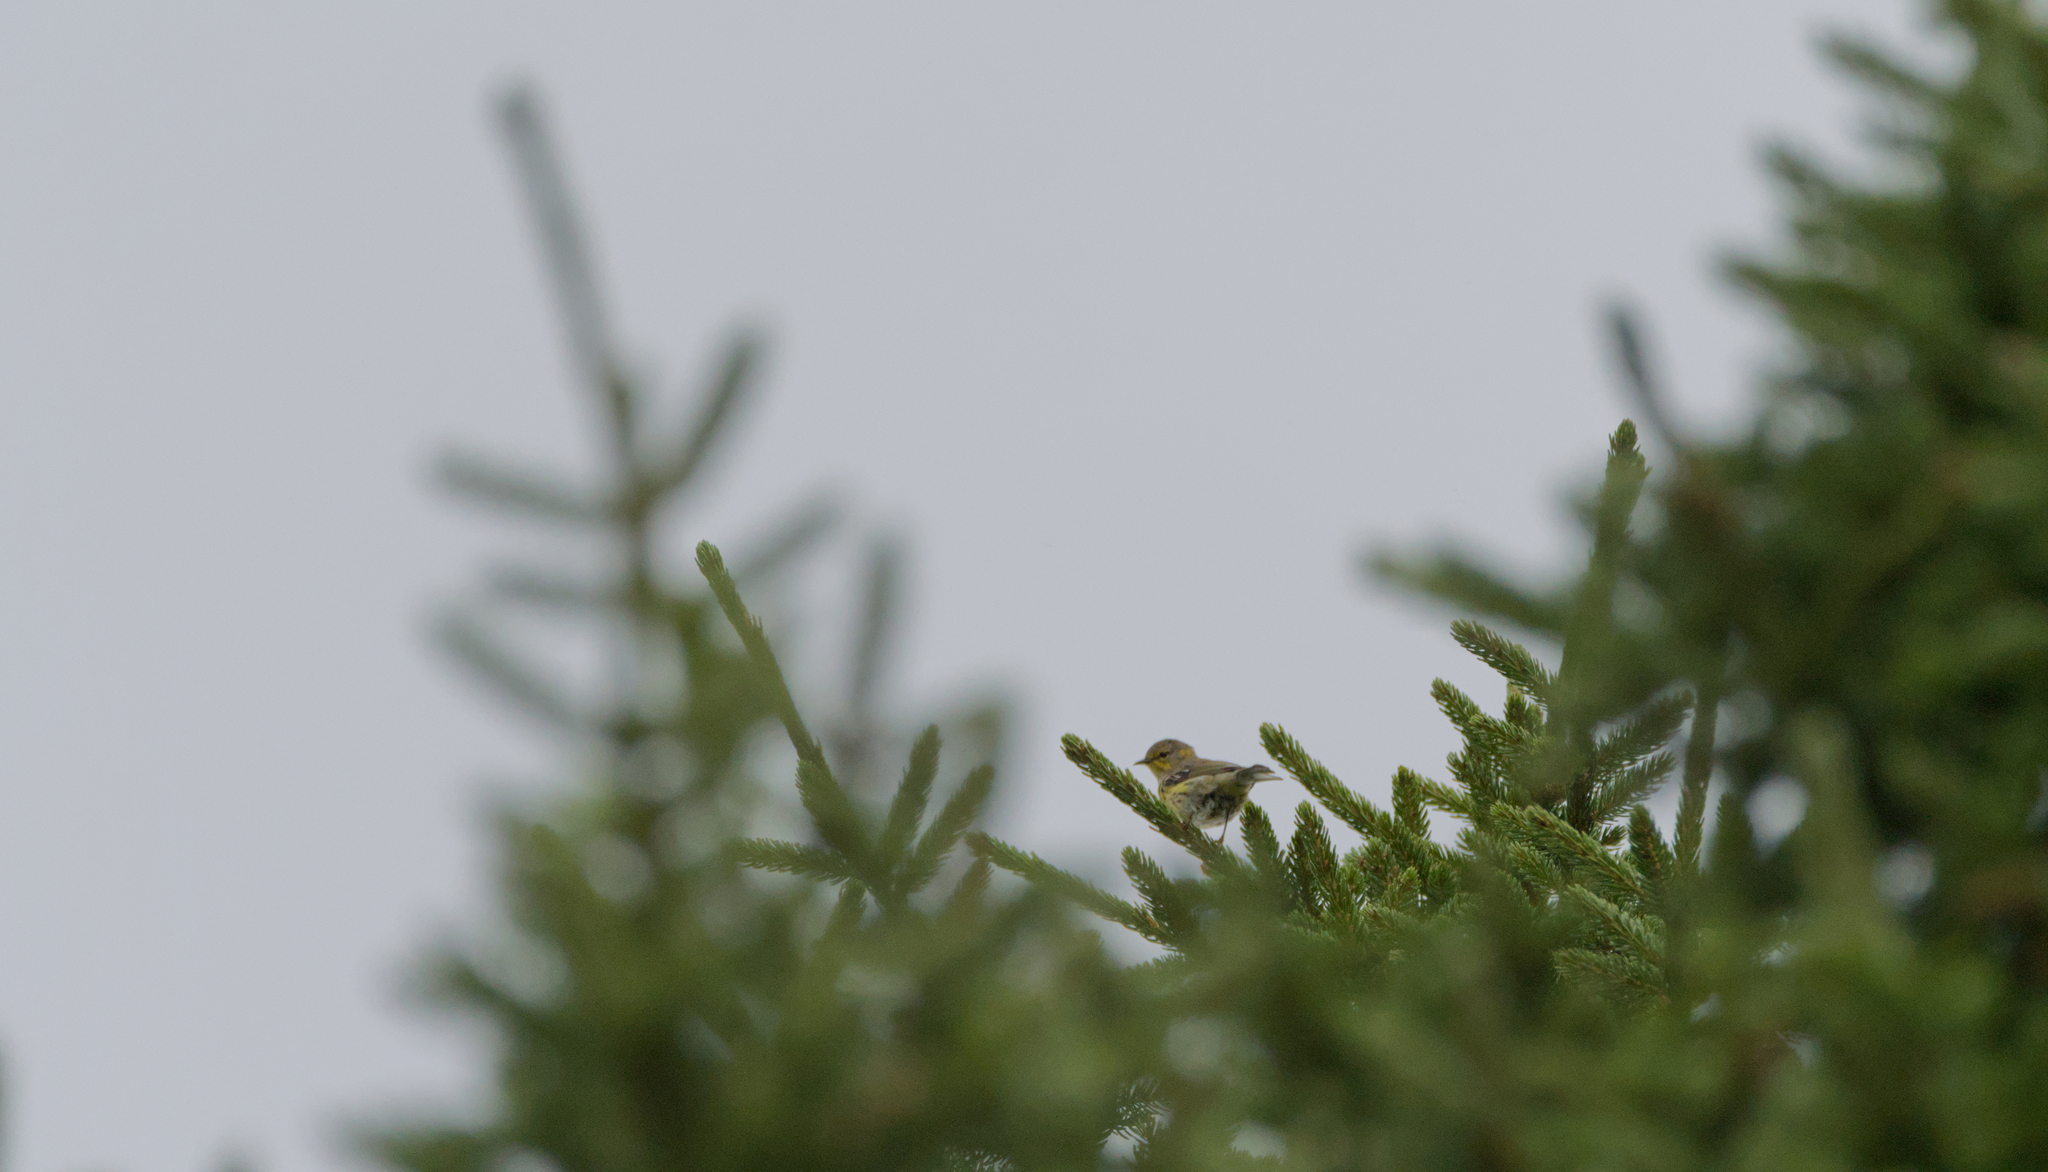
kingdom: Animalia
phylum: Chordata
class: Aves
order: Passeriformes
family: Parulidae
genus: Setophaga
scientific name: Setophaga tigrina
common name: Cape may warbler
